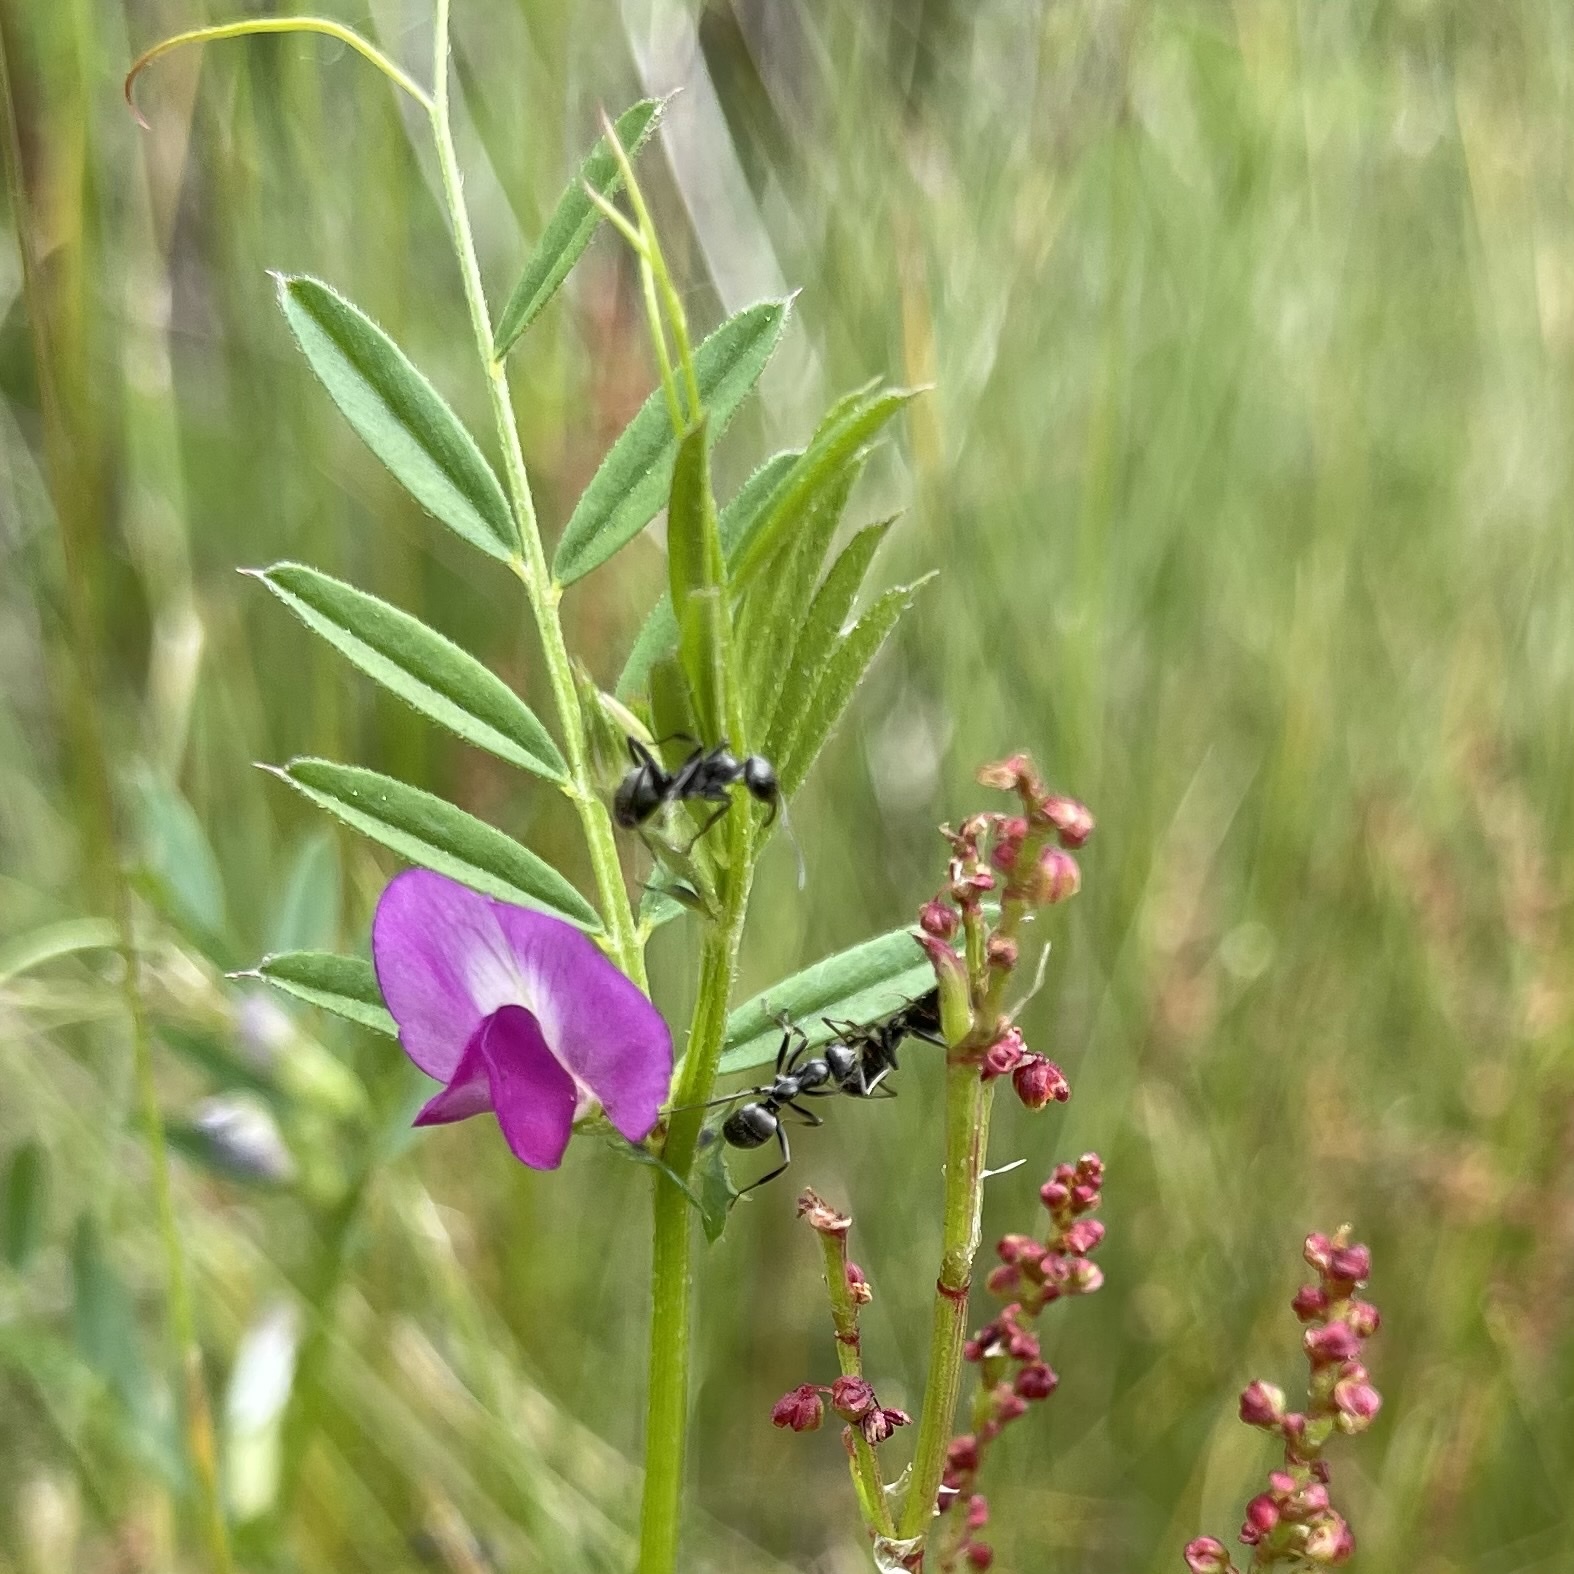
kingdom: Plantae
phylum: Tracheophyta
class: Magnoliopsida
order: Fabales
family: Fabaceae
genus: Vicia
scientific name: Vicia sativa
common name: Garden vetch
